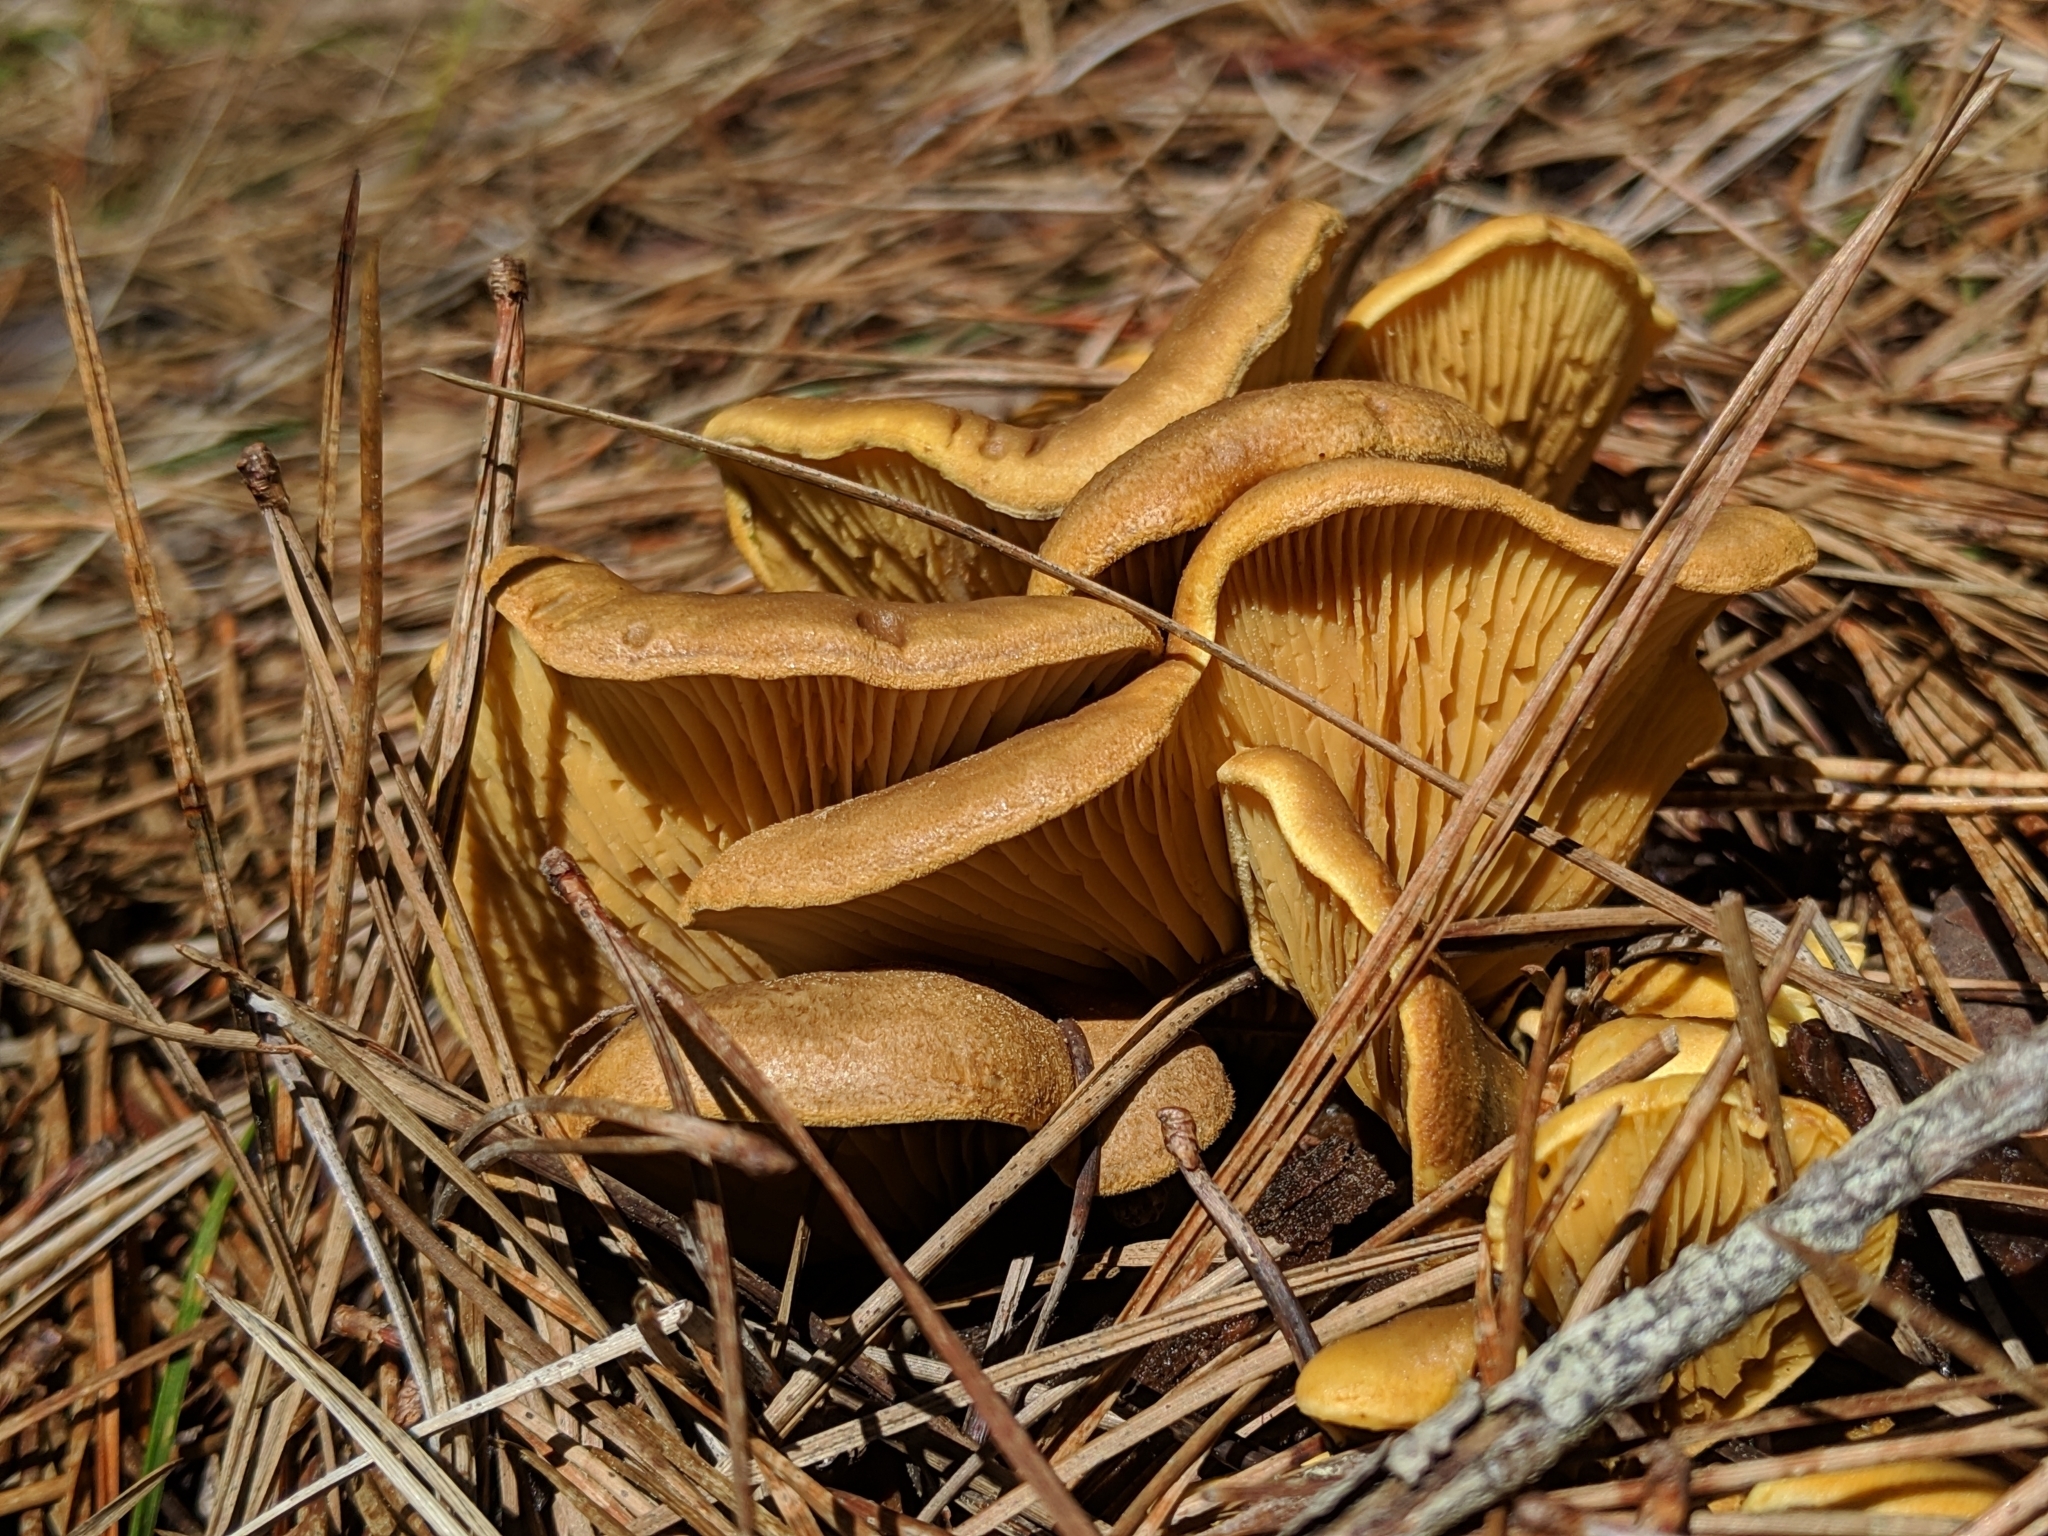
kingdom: Fungi
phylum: Basidiomycota
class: Agaricomycetes
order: Boletales
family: Tapinellaceae
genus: Tapinella
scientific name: Tapinella panuoides
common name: Oyster rollrim
